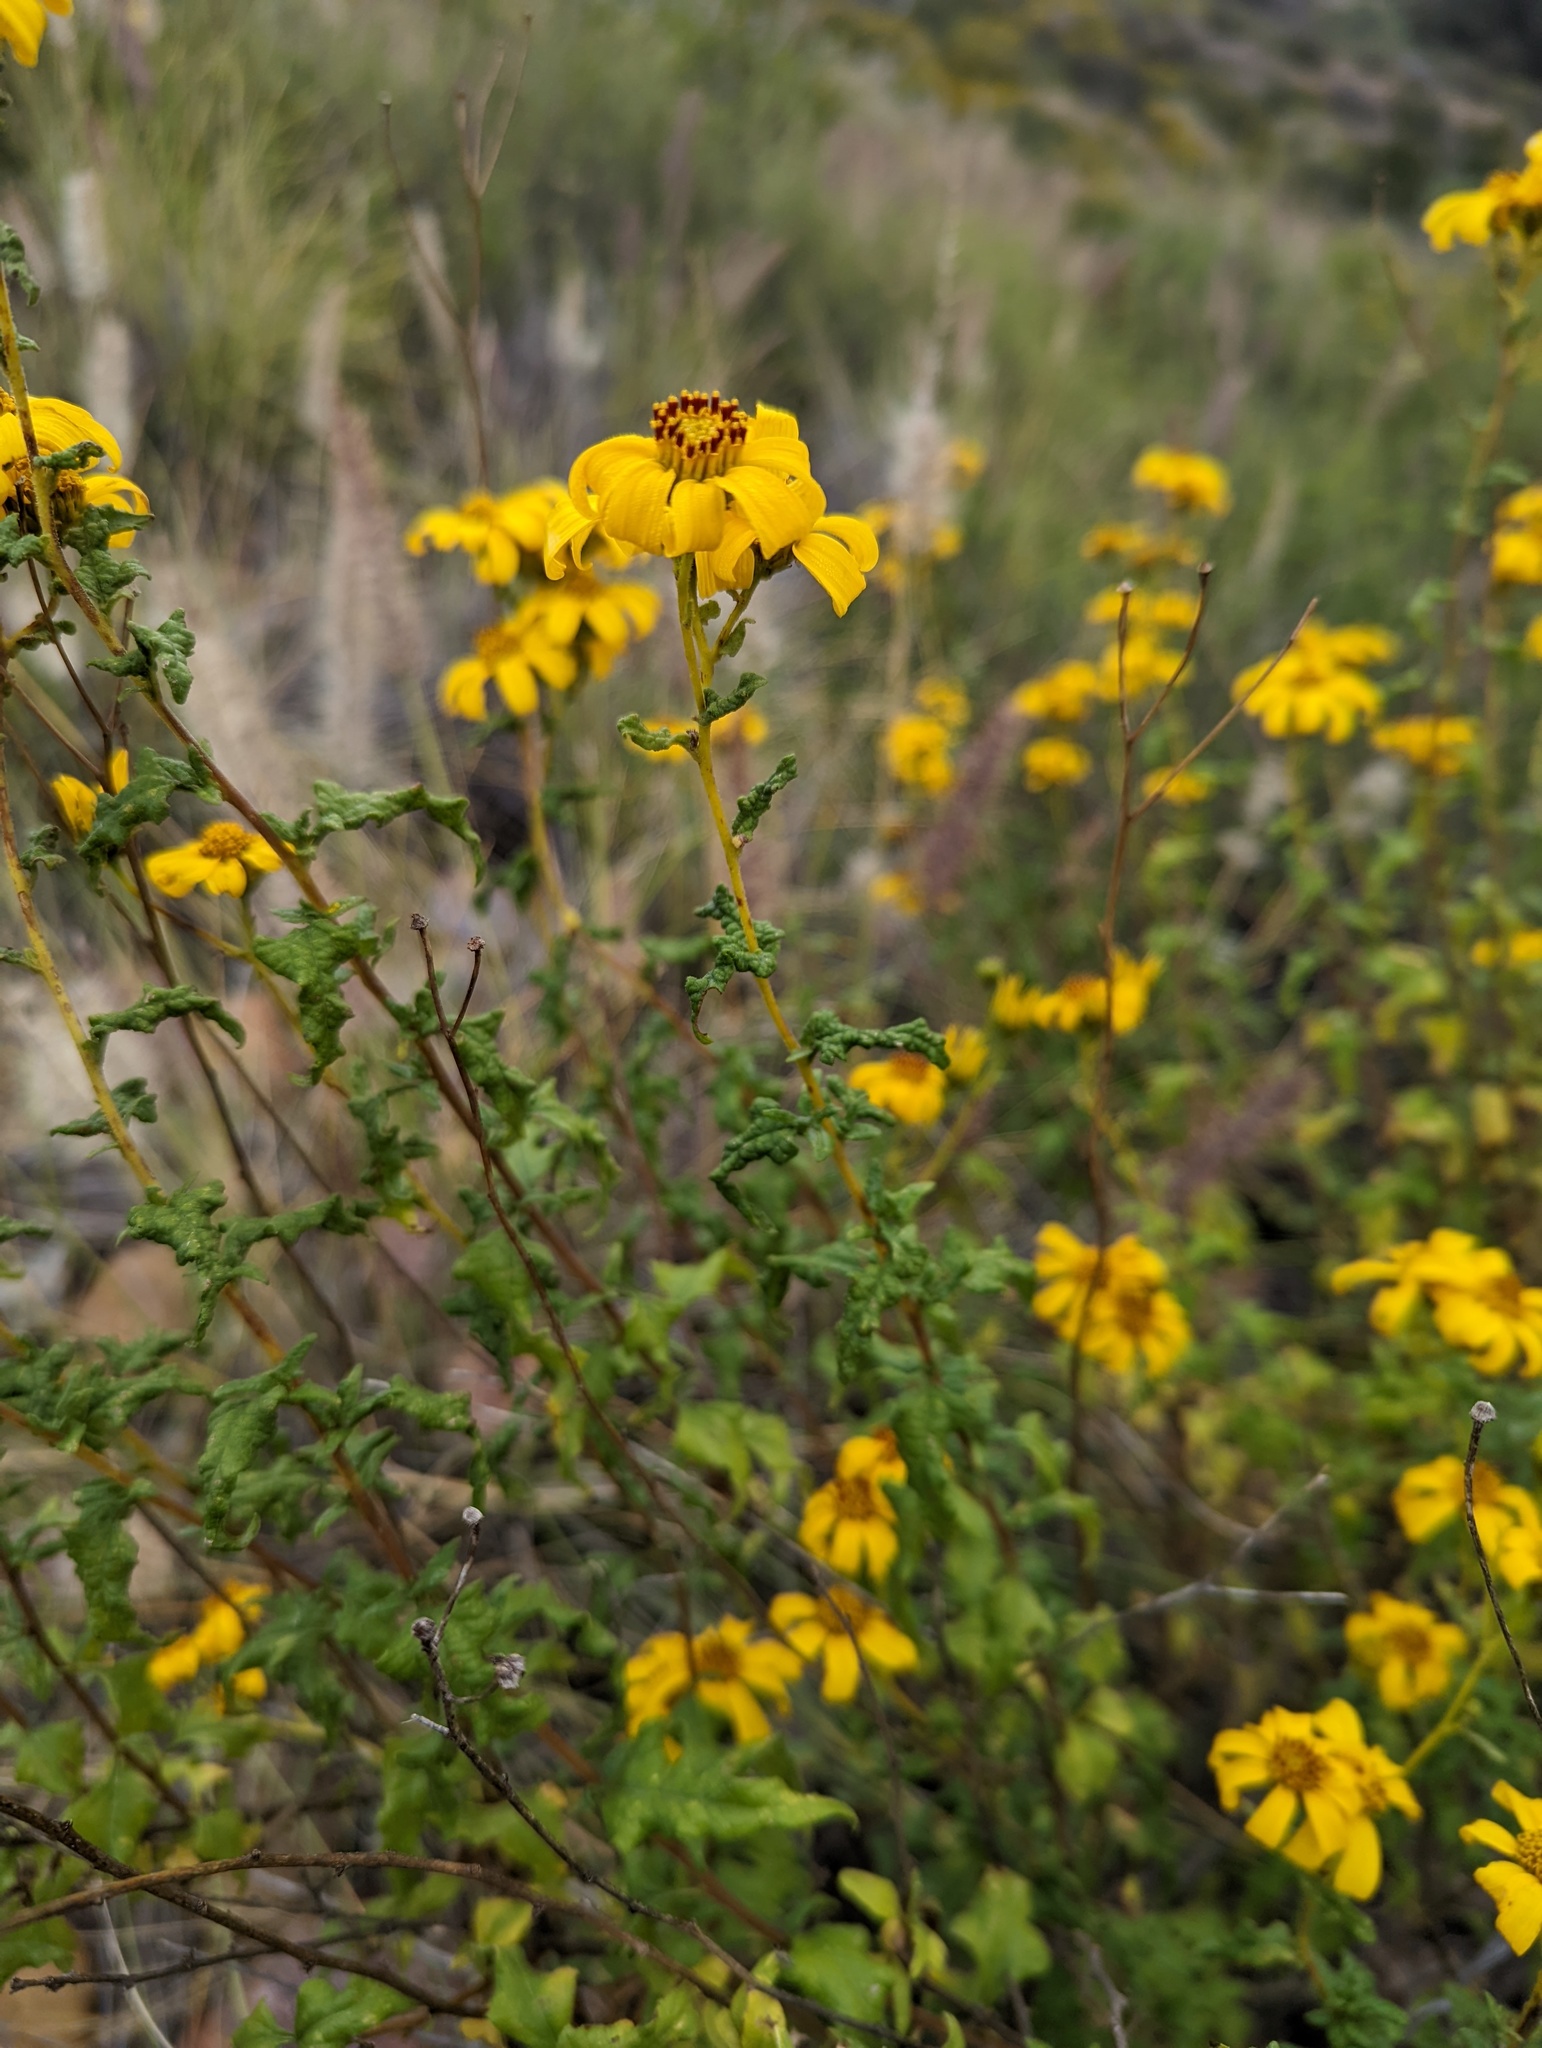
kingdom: Plantae
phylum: Tracheophyta
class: Magnoliopsida
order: Asterales
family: Asteraceae
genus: Bahiopsis
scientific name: Bahiopsis laciniata
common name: San diego county viguiera
